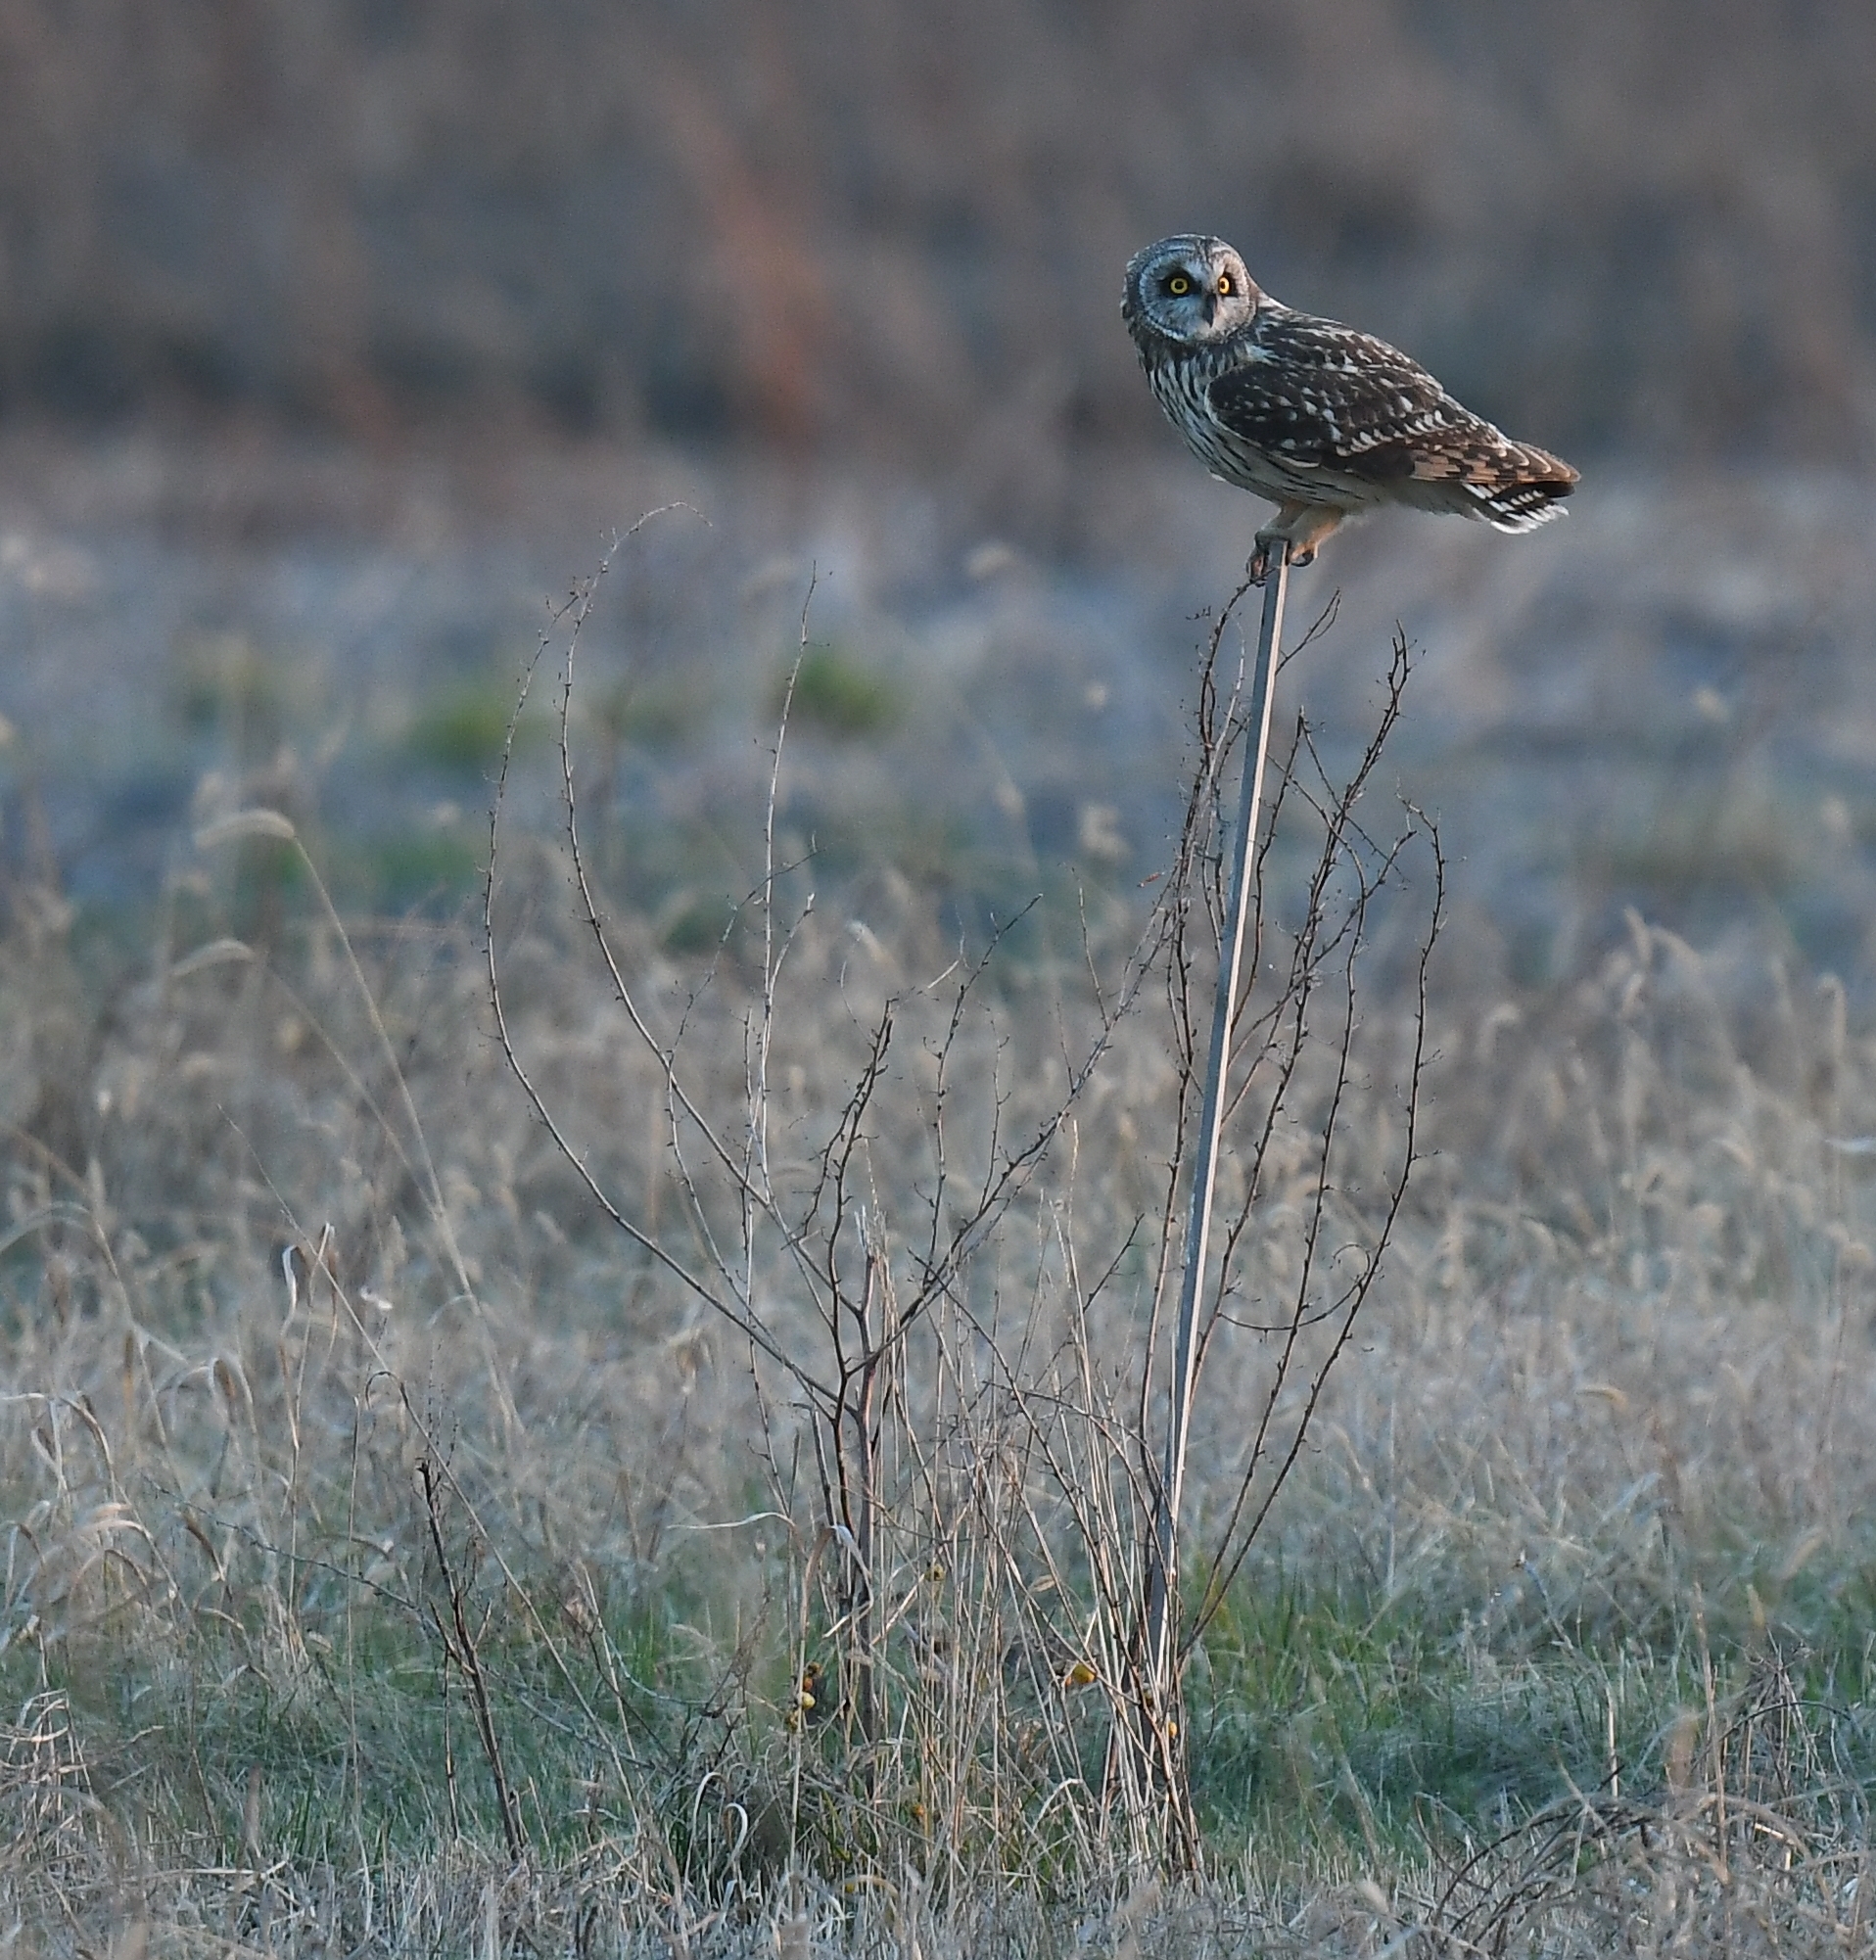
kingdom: Animalia
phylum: Chordata
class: Aves
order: Strigiformes
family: Strigidae
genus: Asio
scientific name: Asio flammeus
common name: Short-eared owl
